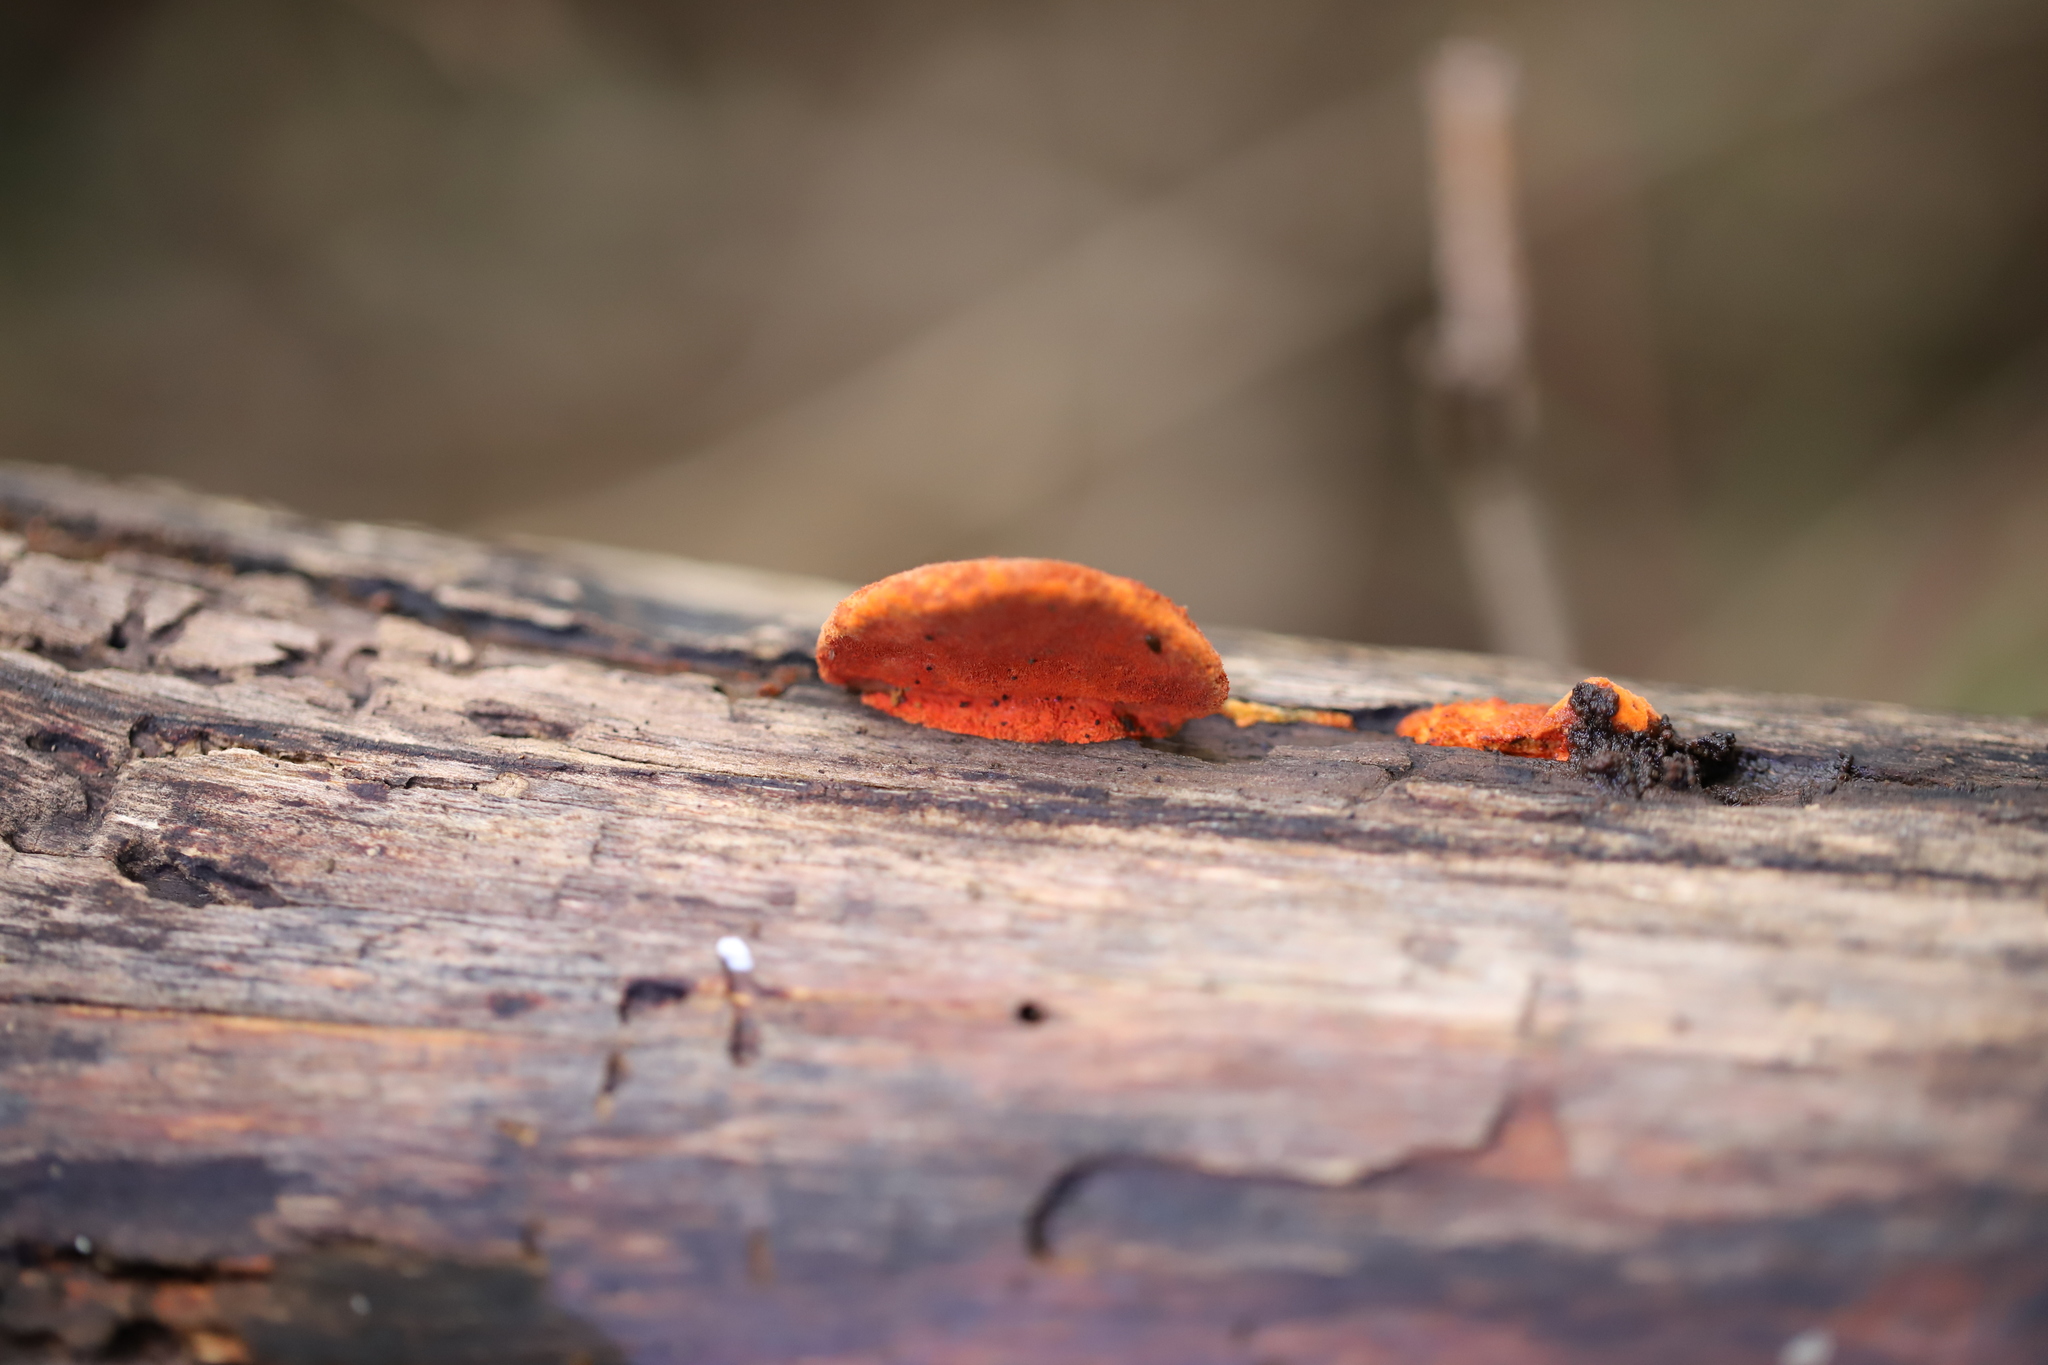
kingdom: Fungi
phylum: Basidiomycota
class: Agaricomycetes
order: Polyporales
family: Polyporaceae
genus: Trametes
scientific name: Trametes coccinea
